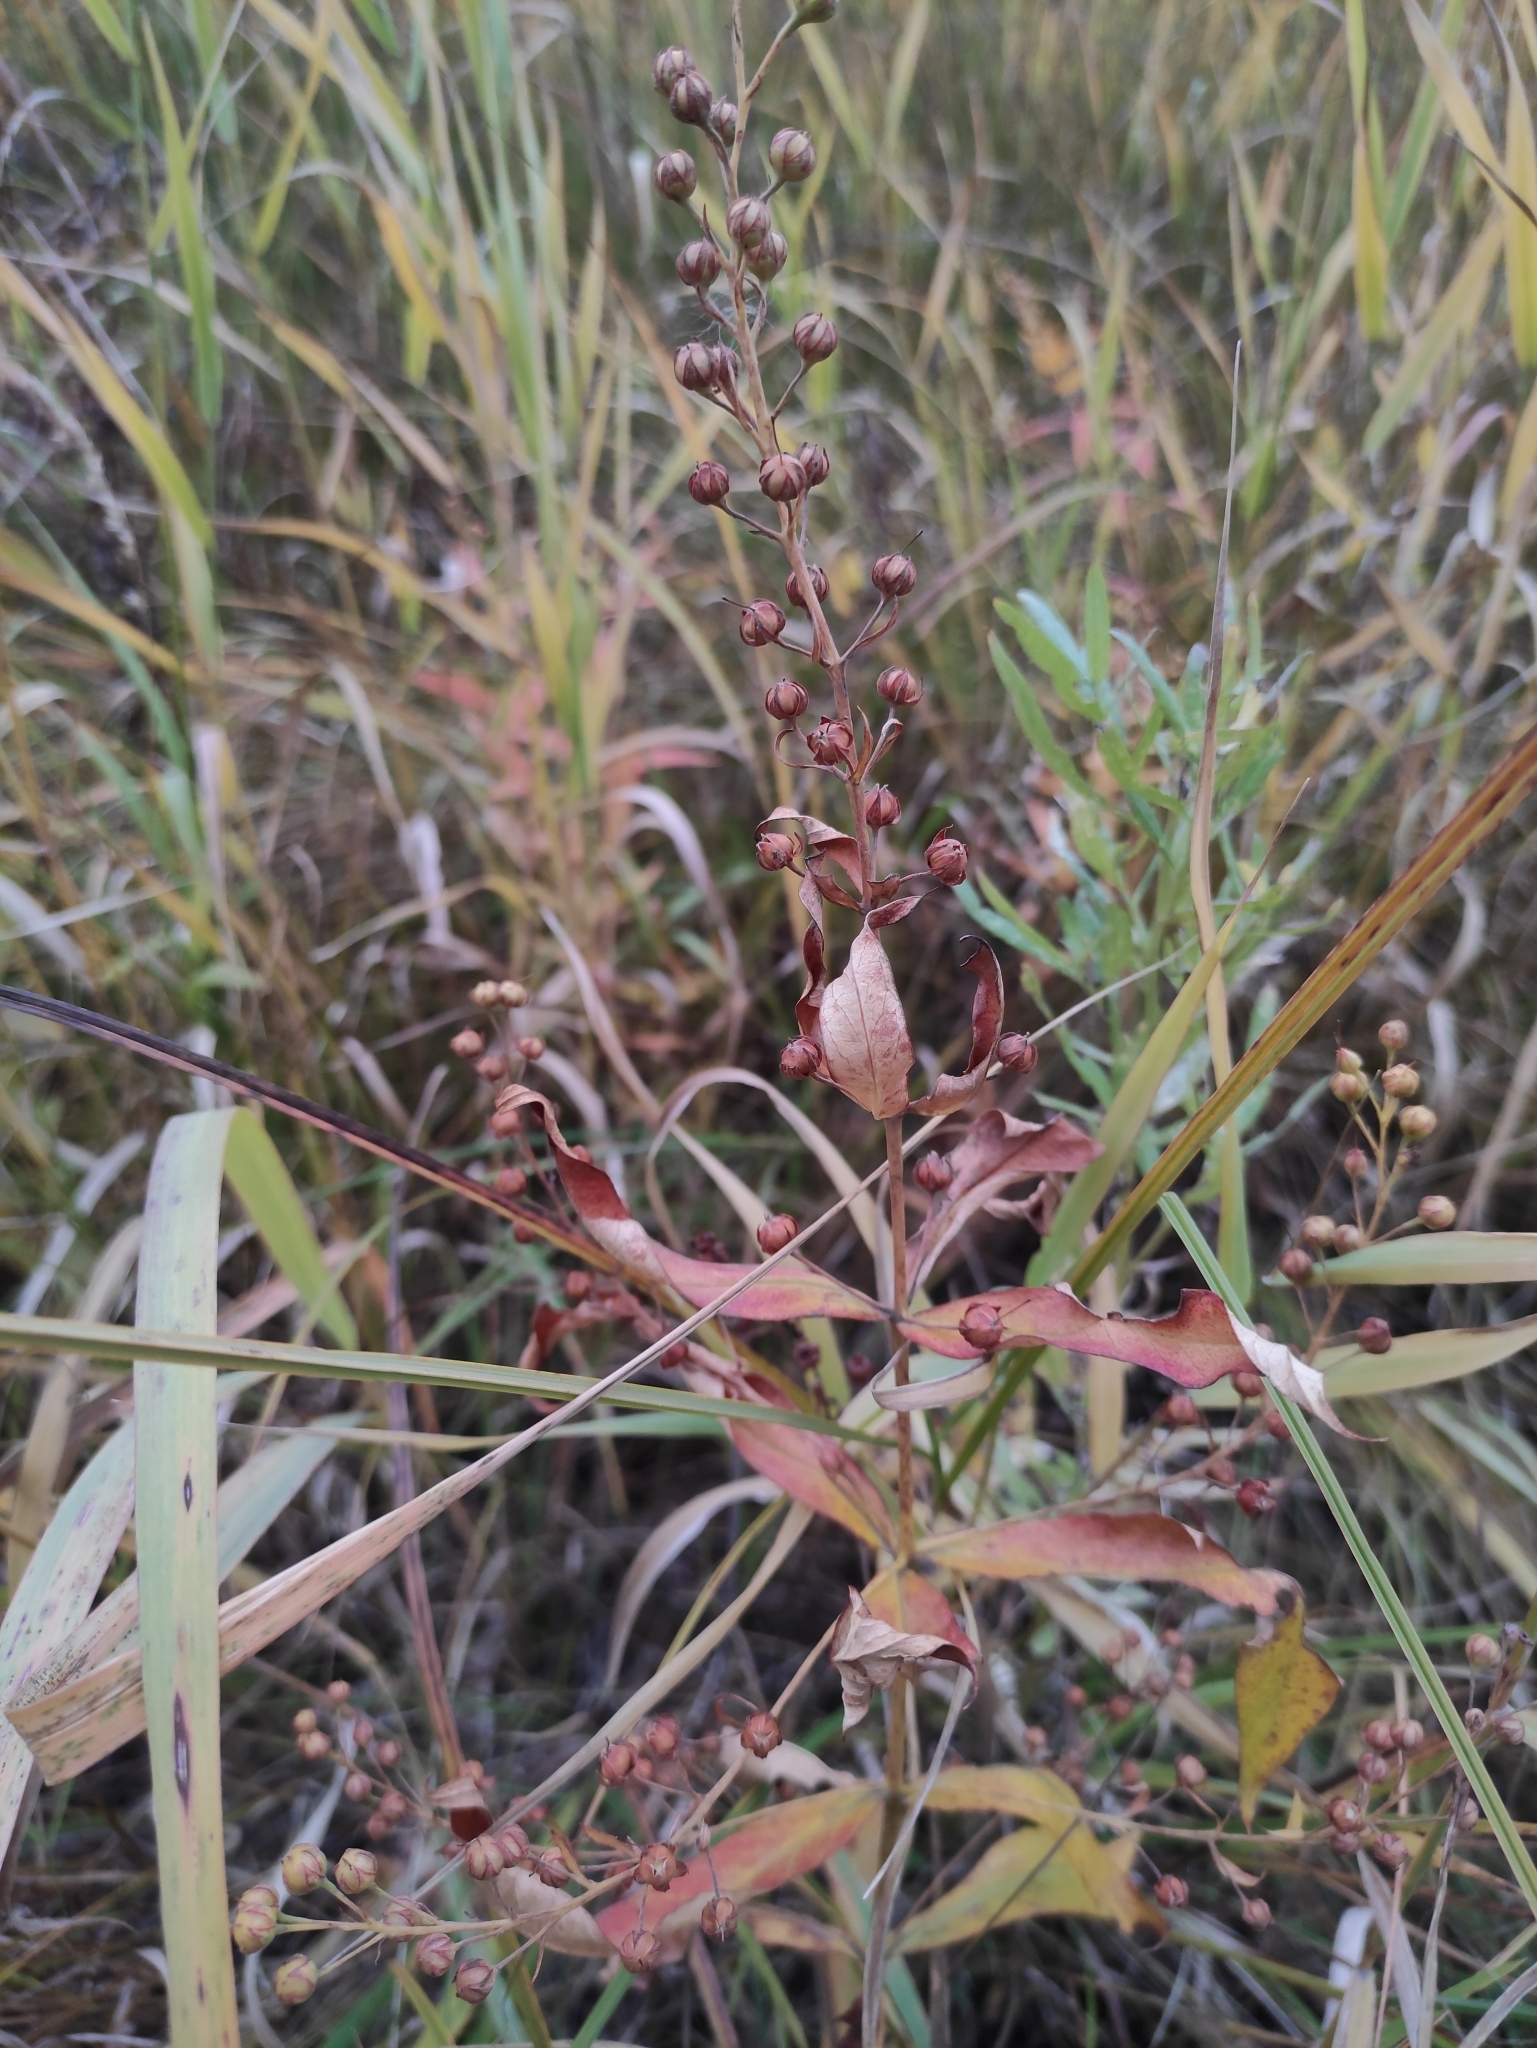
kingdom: Plantae
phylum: Tracheophyta
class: Magnoliopsida
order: Ericales
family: Primulaceae
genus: Lysimachia
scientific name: Lysimachia davurica
